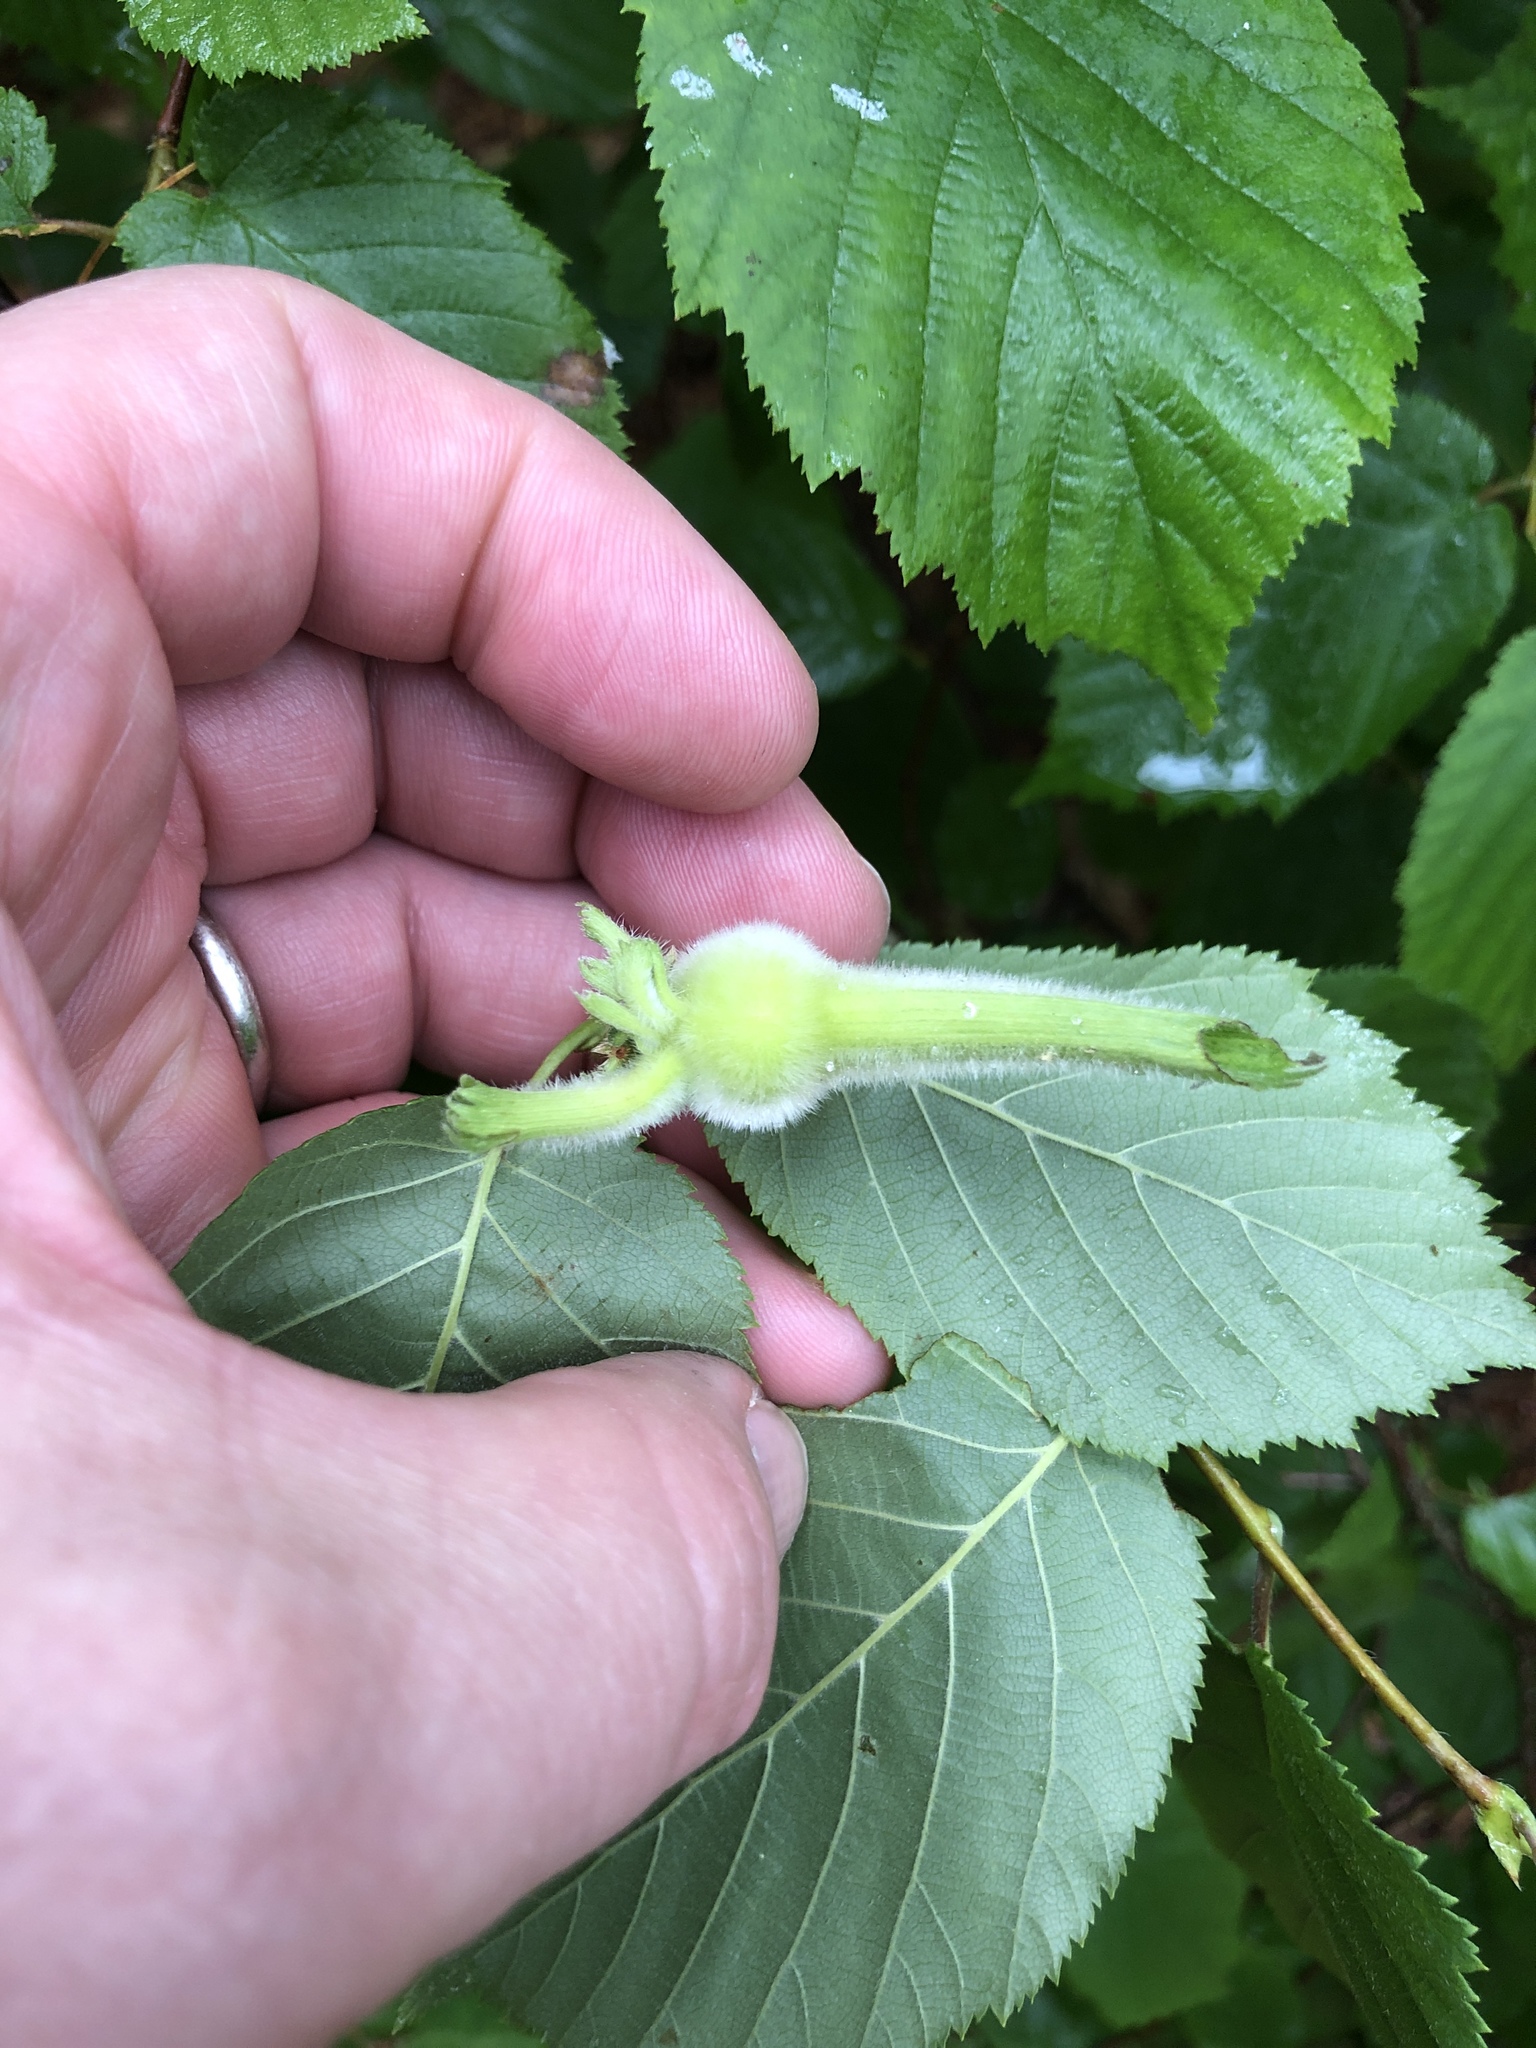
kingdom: Plantae
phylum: Tracheophyta
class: Magnoliopsida
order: Fagales
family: Betulaceae
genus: Corylus
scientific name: Corylus cornuta
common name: Beaked hazel
